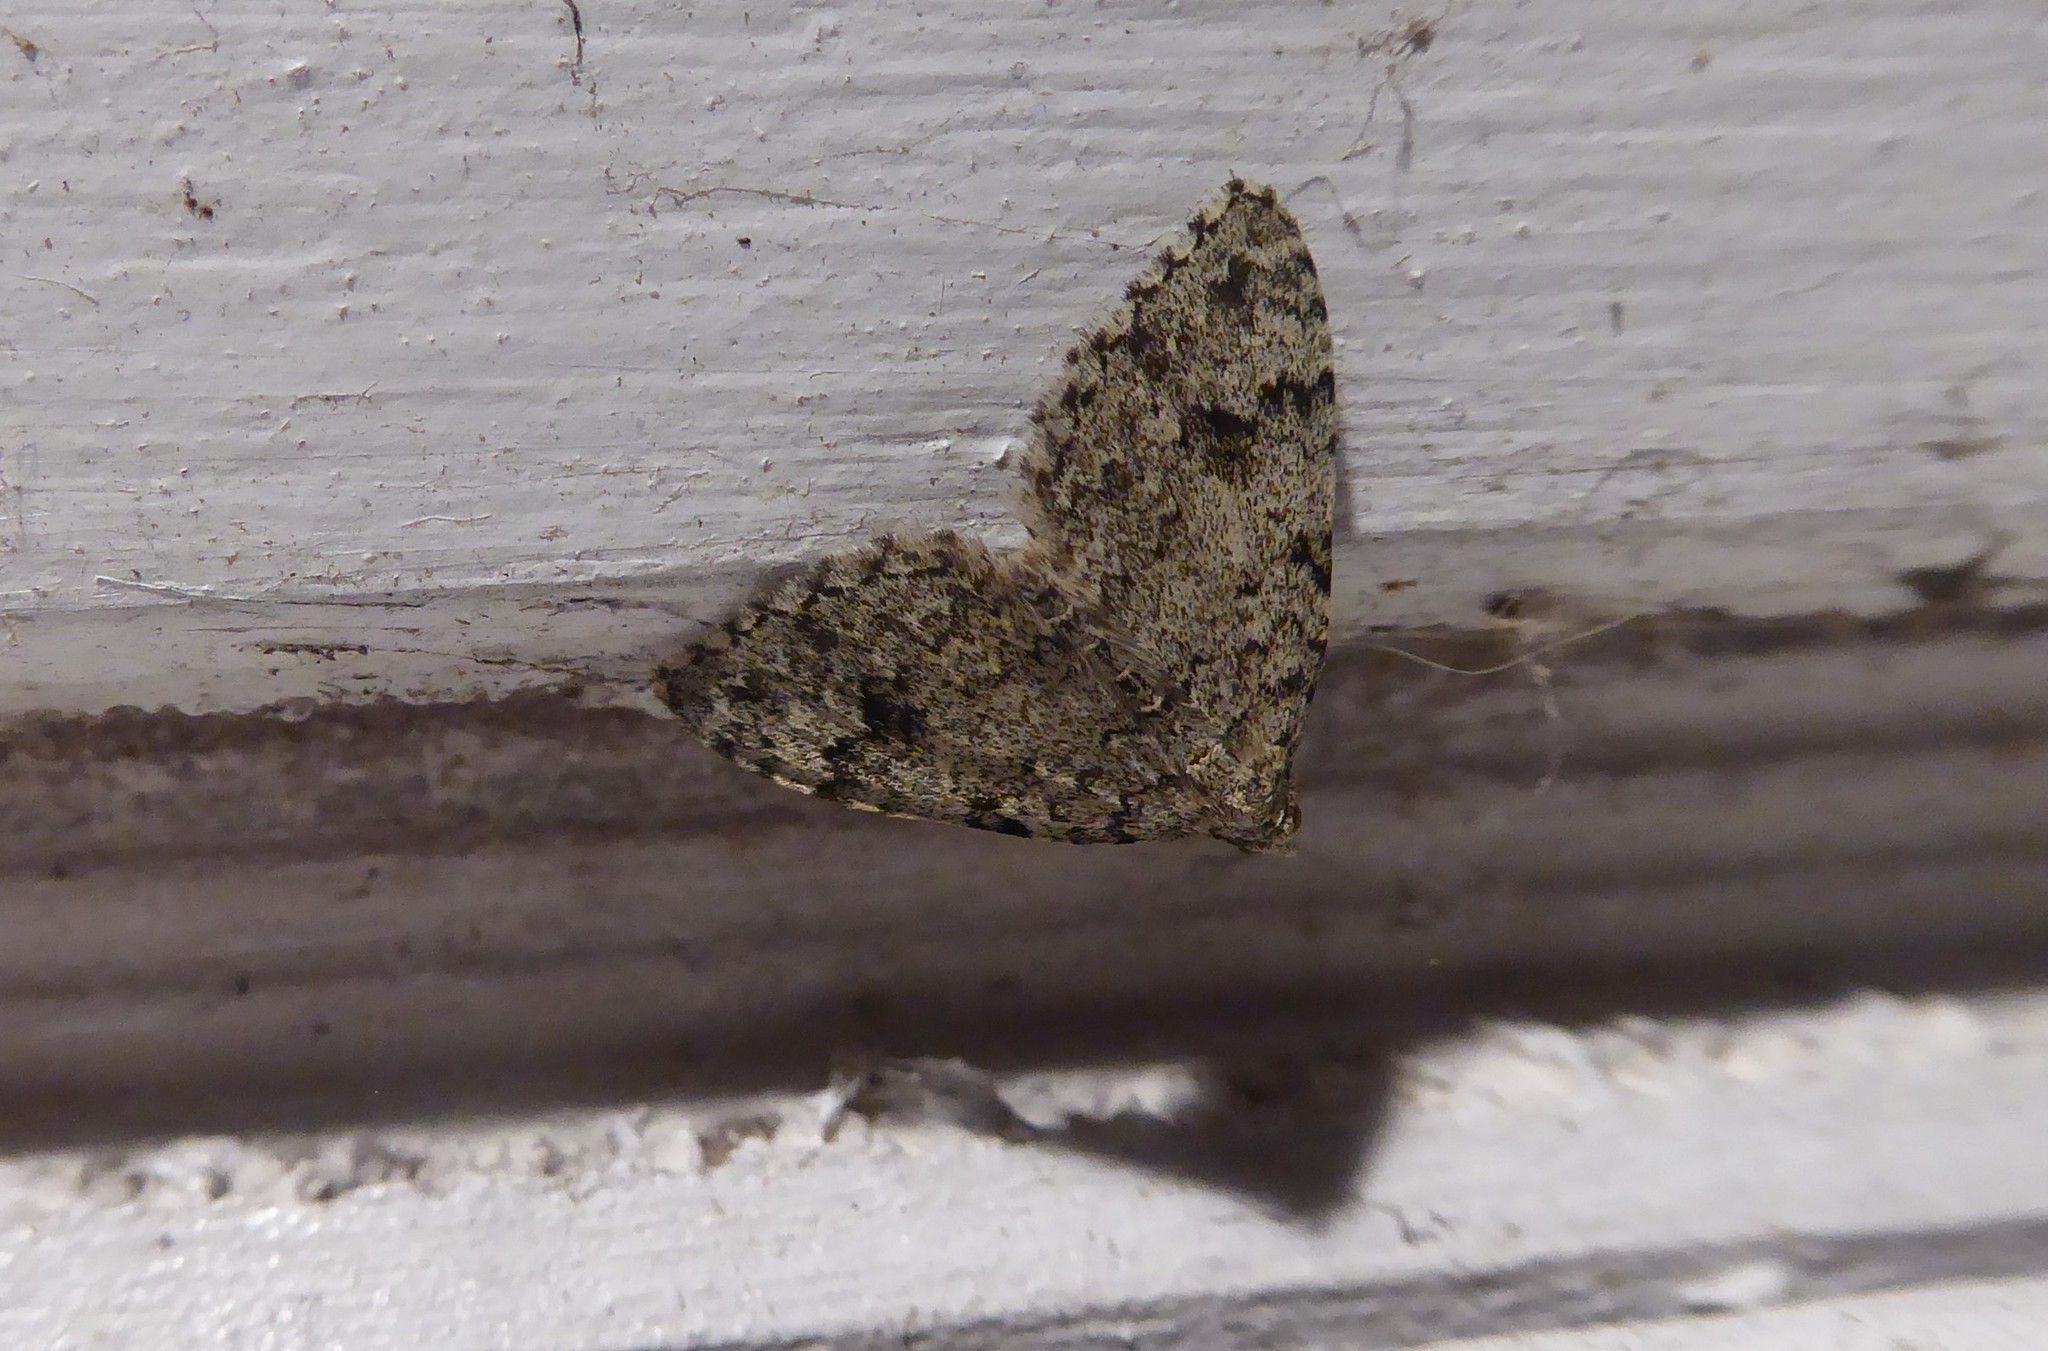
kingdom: Animalia
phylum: Arthropoda
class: Insecta
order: Lepidoptera
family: Geometridae
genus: Helastia
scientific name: Helastia cinerearia
